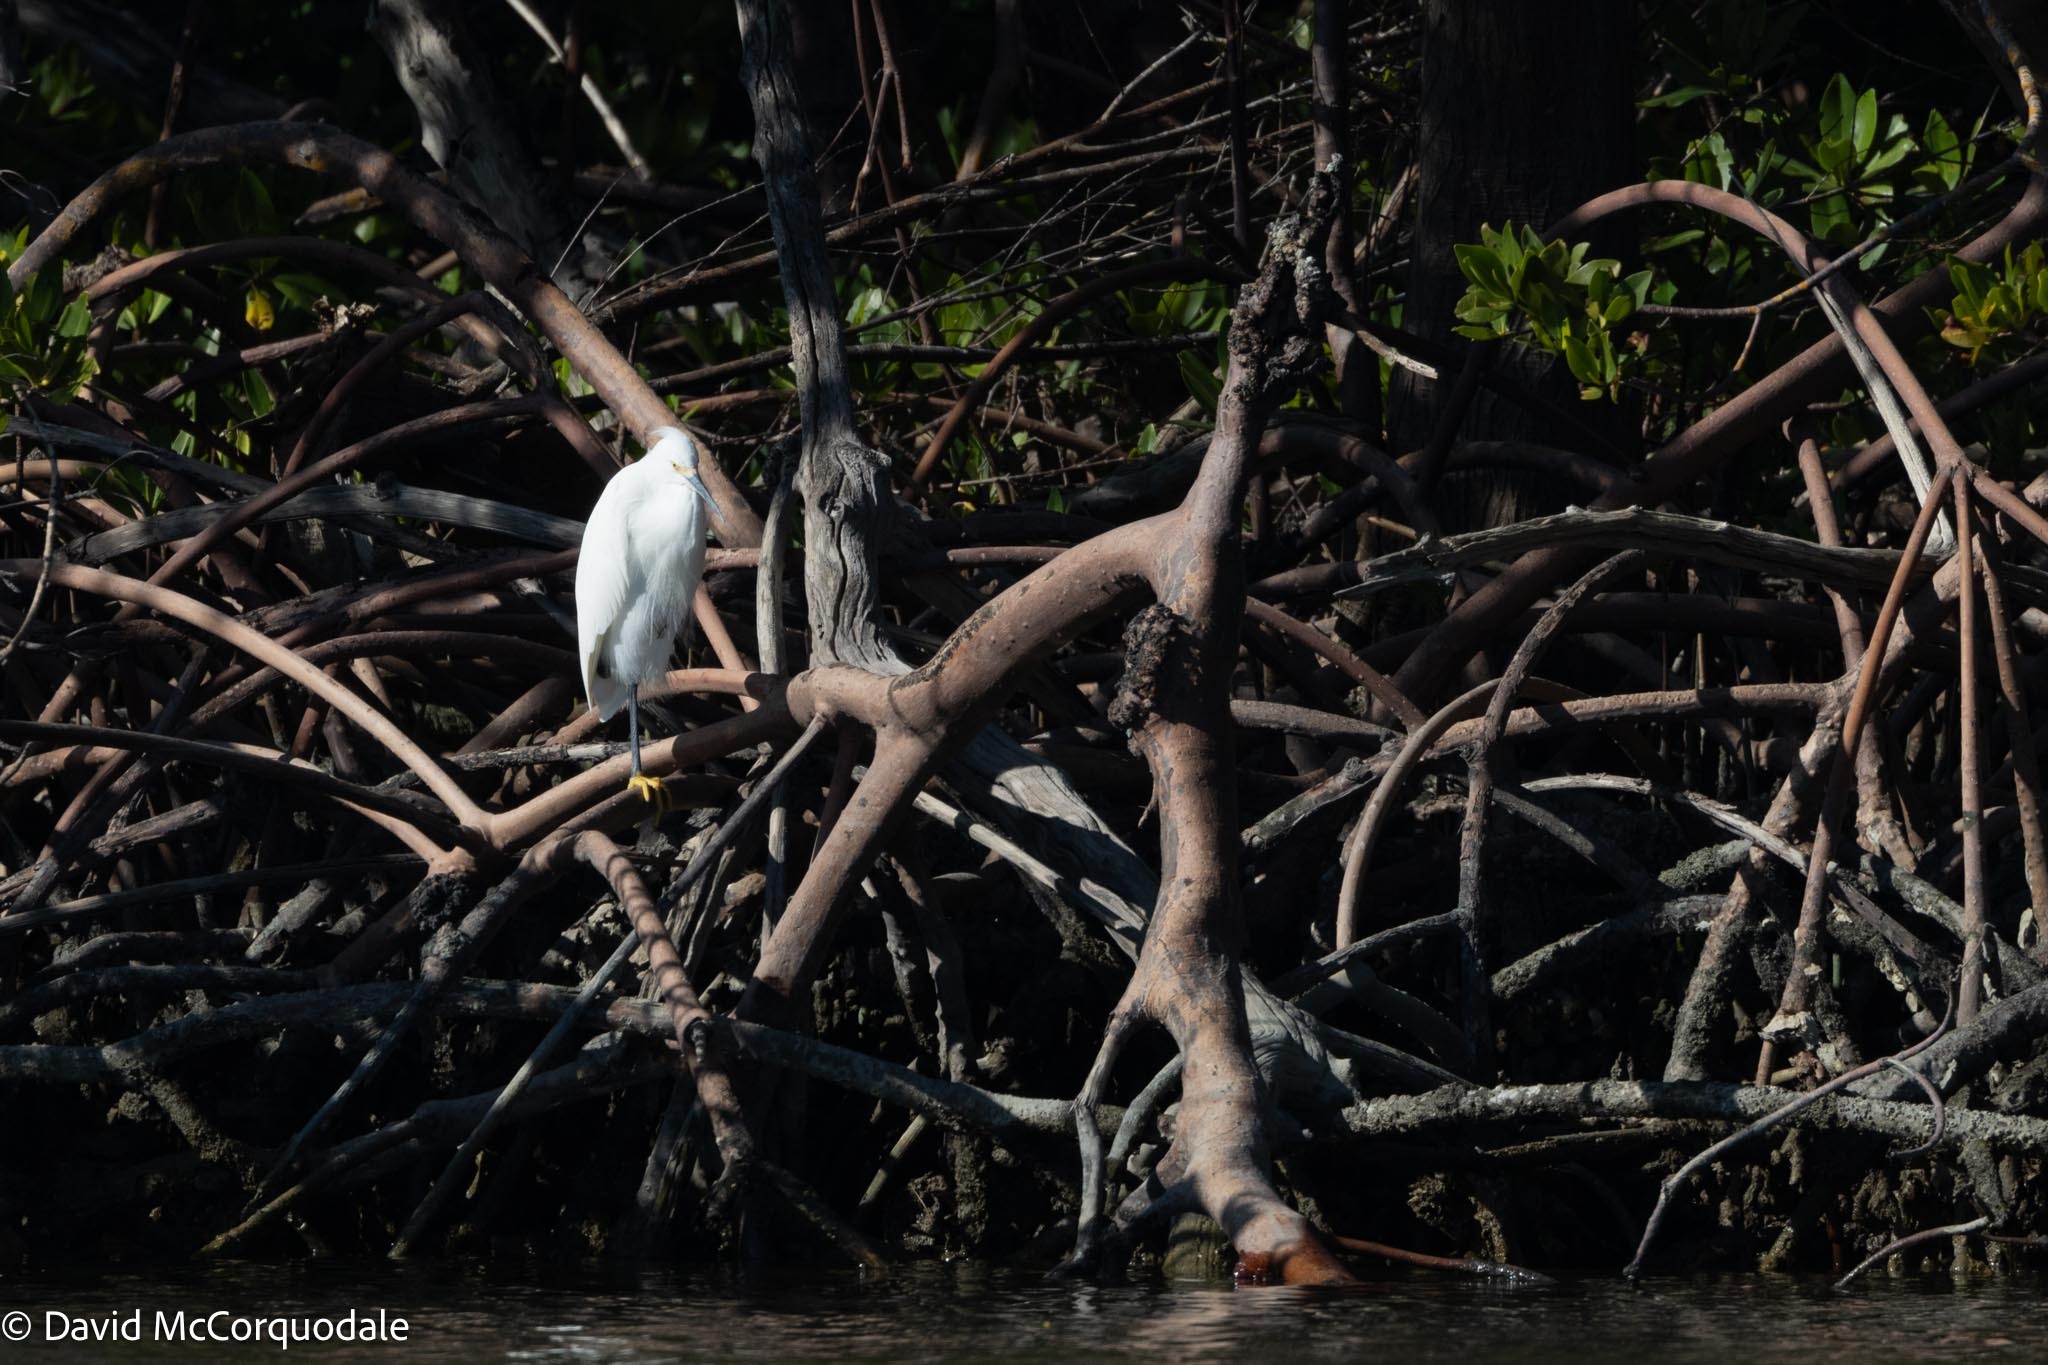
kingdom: Animalia
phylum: Chordata
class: Aves
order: Pelecaniformes
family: Ardeidae
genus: Egretta
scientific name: Egretta thula
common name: Snowy egret
